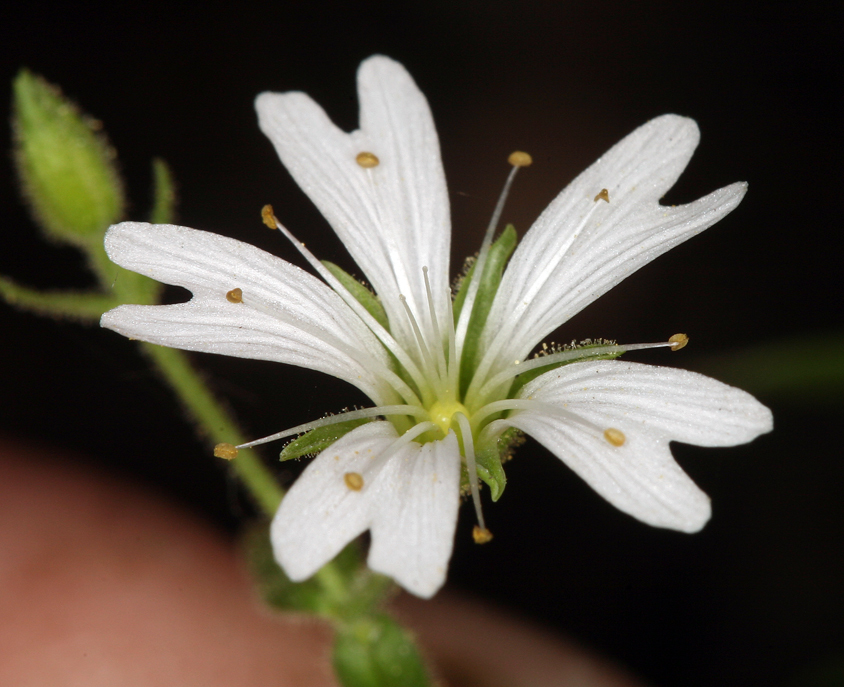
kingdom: Plantae
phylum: Tracheophyta
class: Magnoliopsida
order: Caryophyllales
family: Caryophyllaceae
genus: Schizotechium
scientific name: Schizotechium jamesianum
